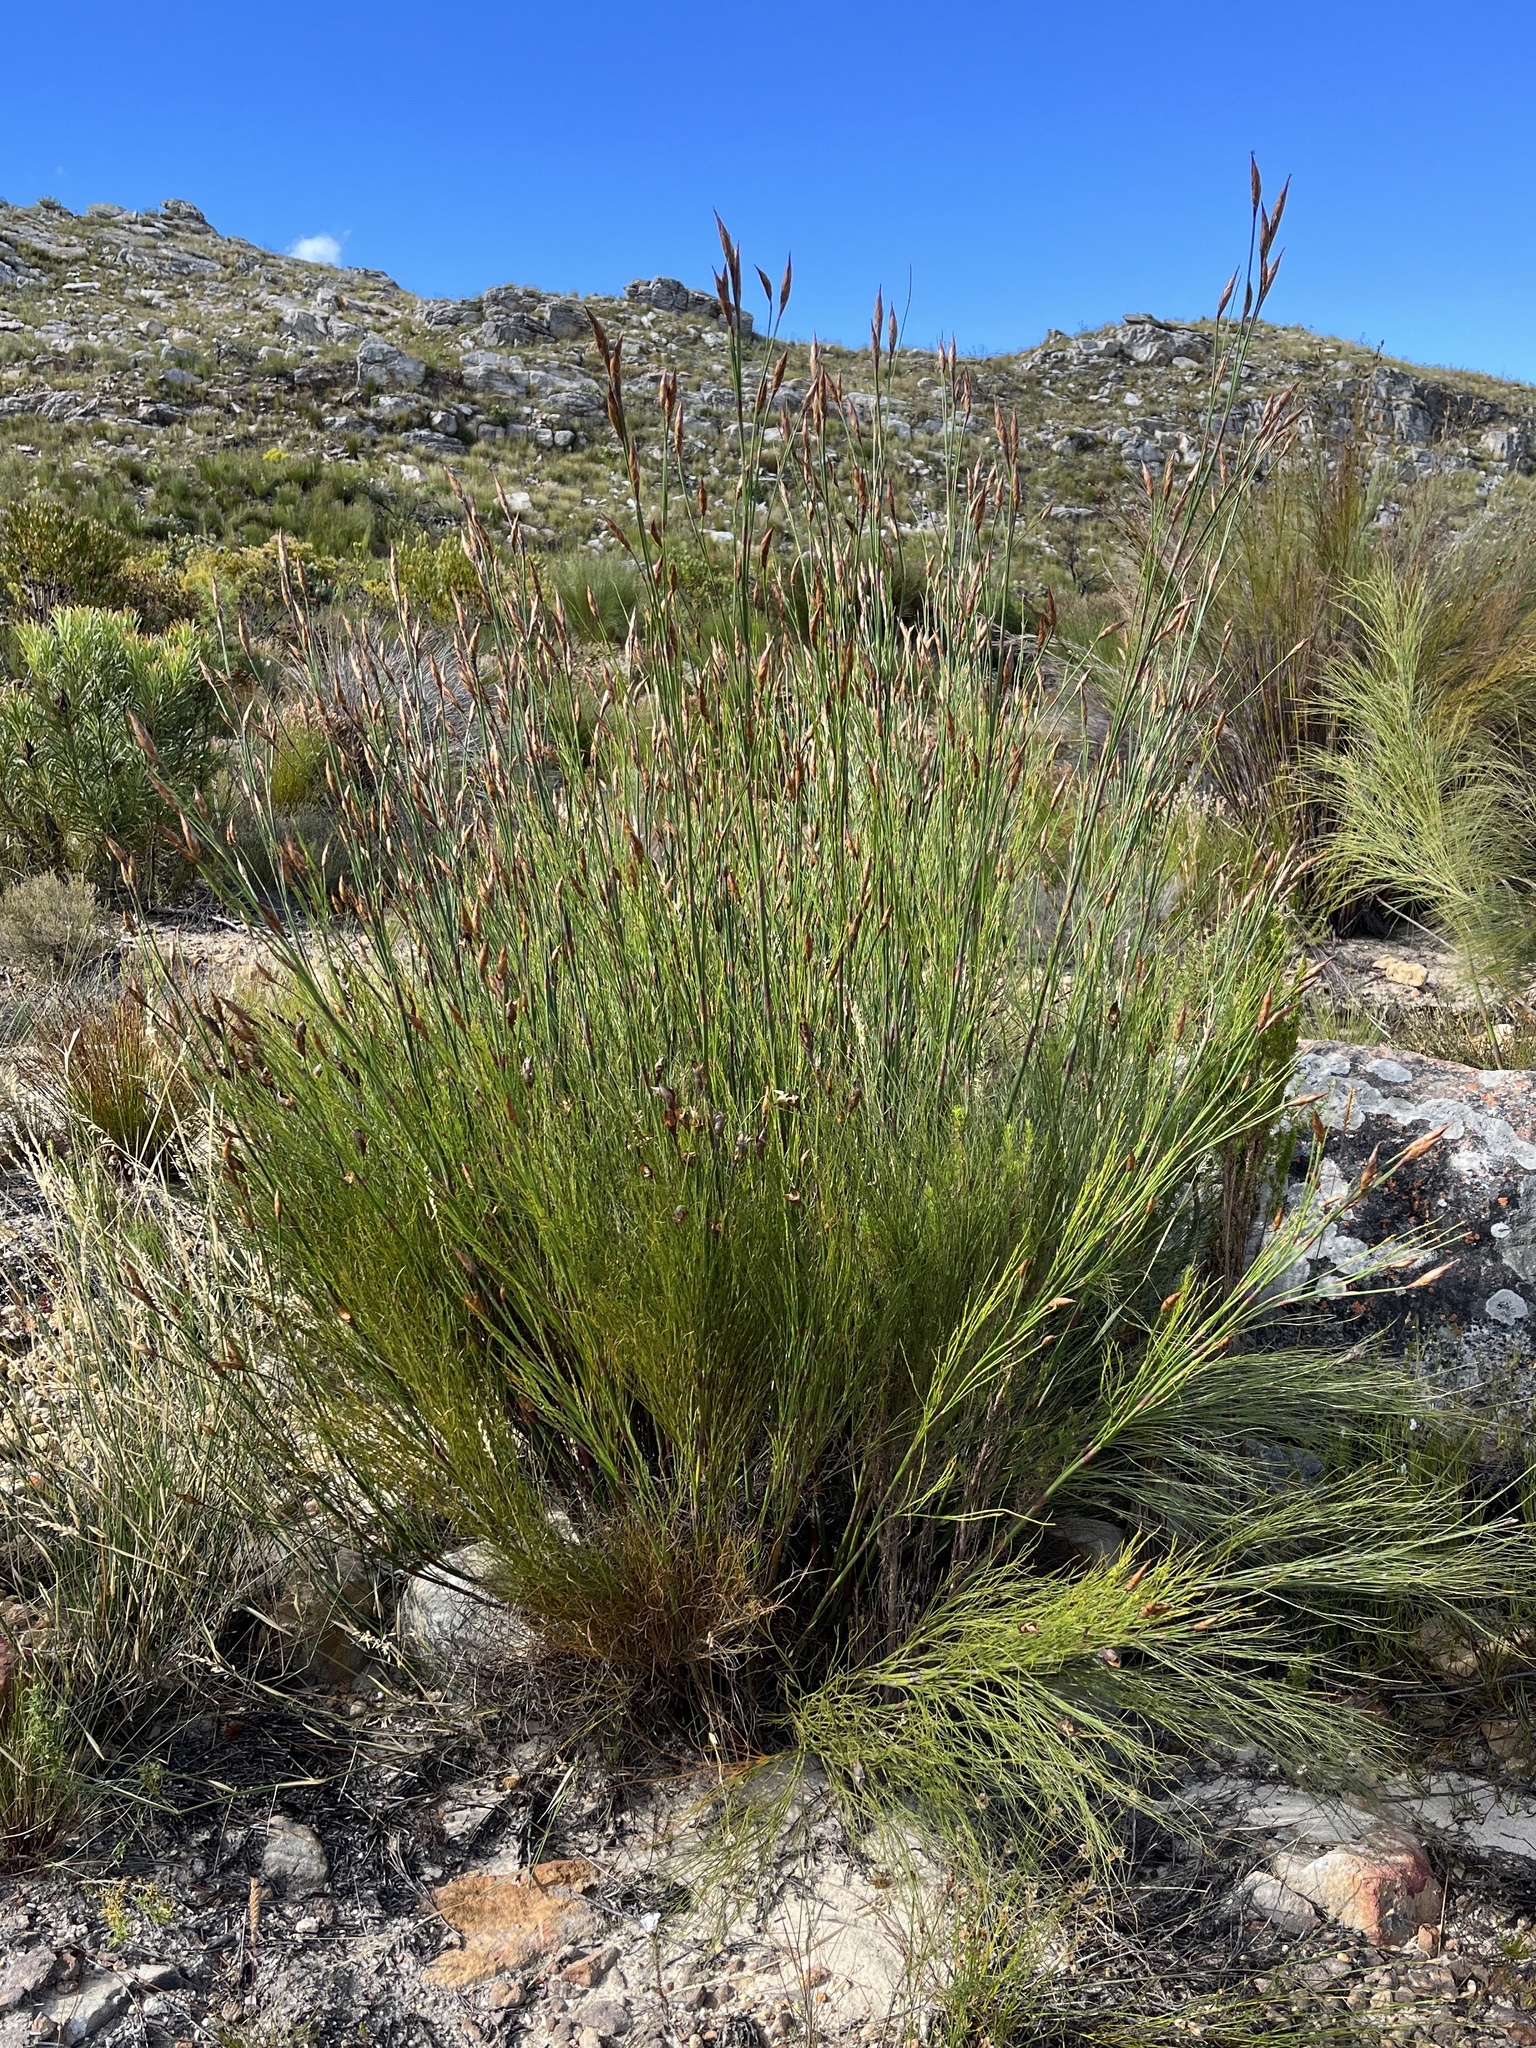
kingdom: Plantae
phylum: Tracheophyta
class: Liliopsida
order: Poales
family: Restionaceae
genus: Cannomois
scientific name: Cannomois robusta
